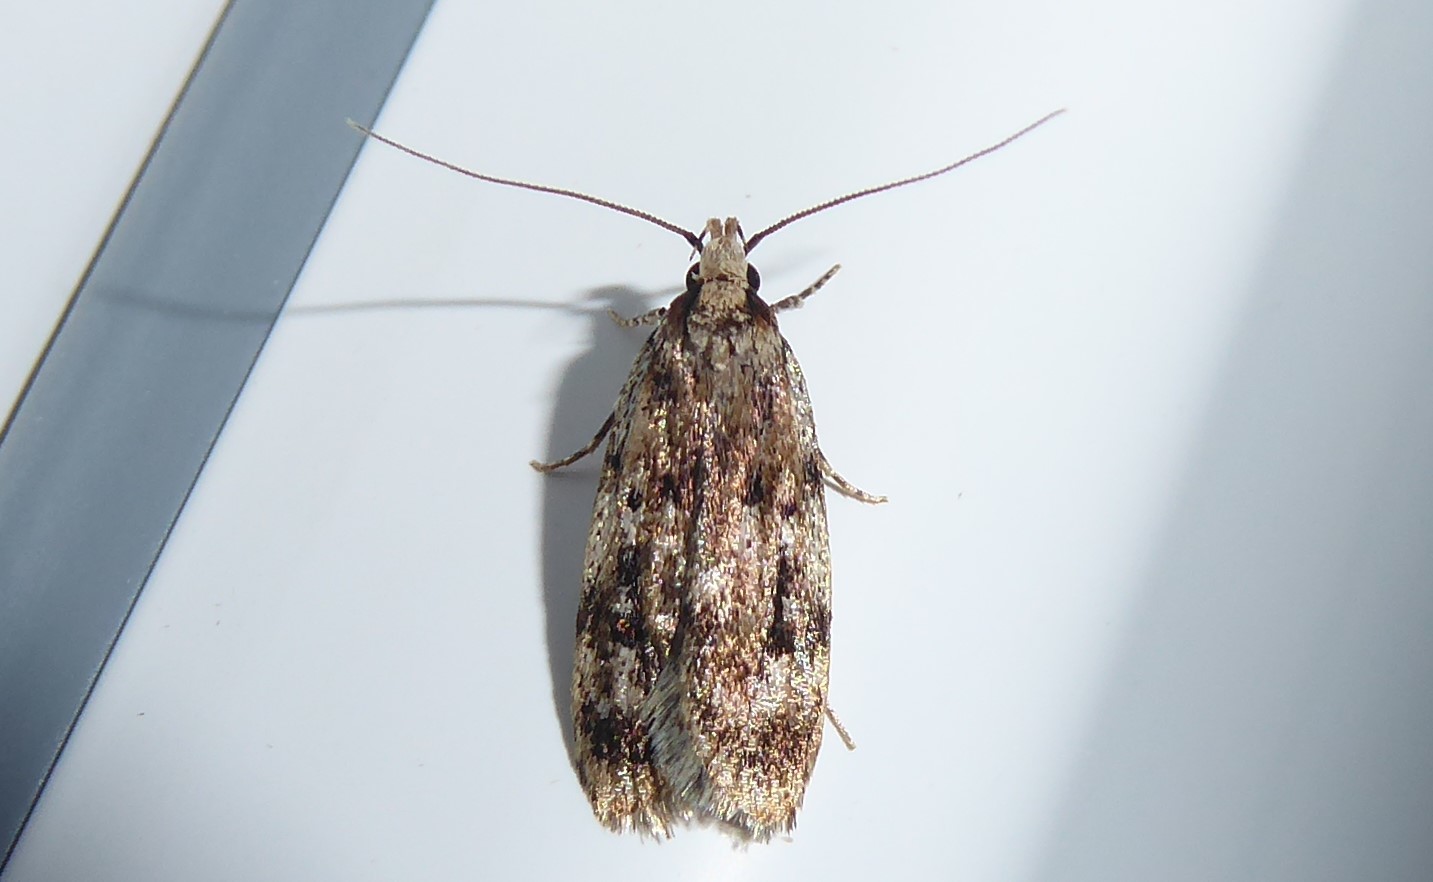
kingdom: Animalia
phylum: Arthropoda
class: Insecta
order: Lepidoptera
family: Oecophoridae
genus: Barea
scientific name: Barea exarcha
